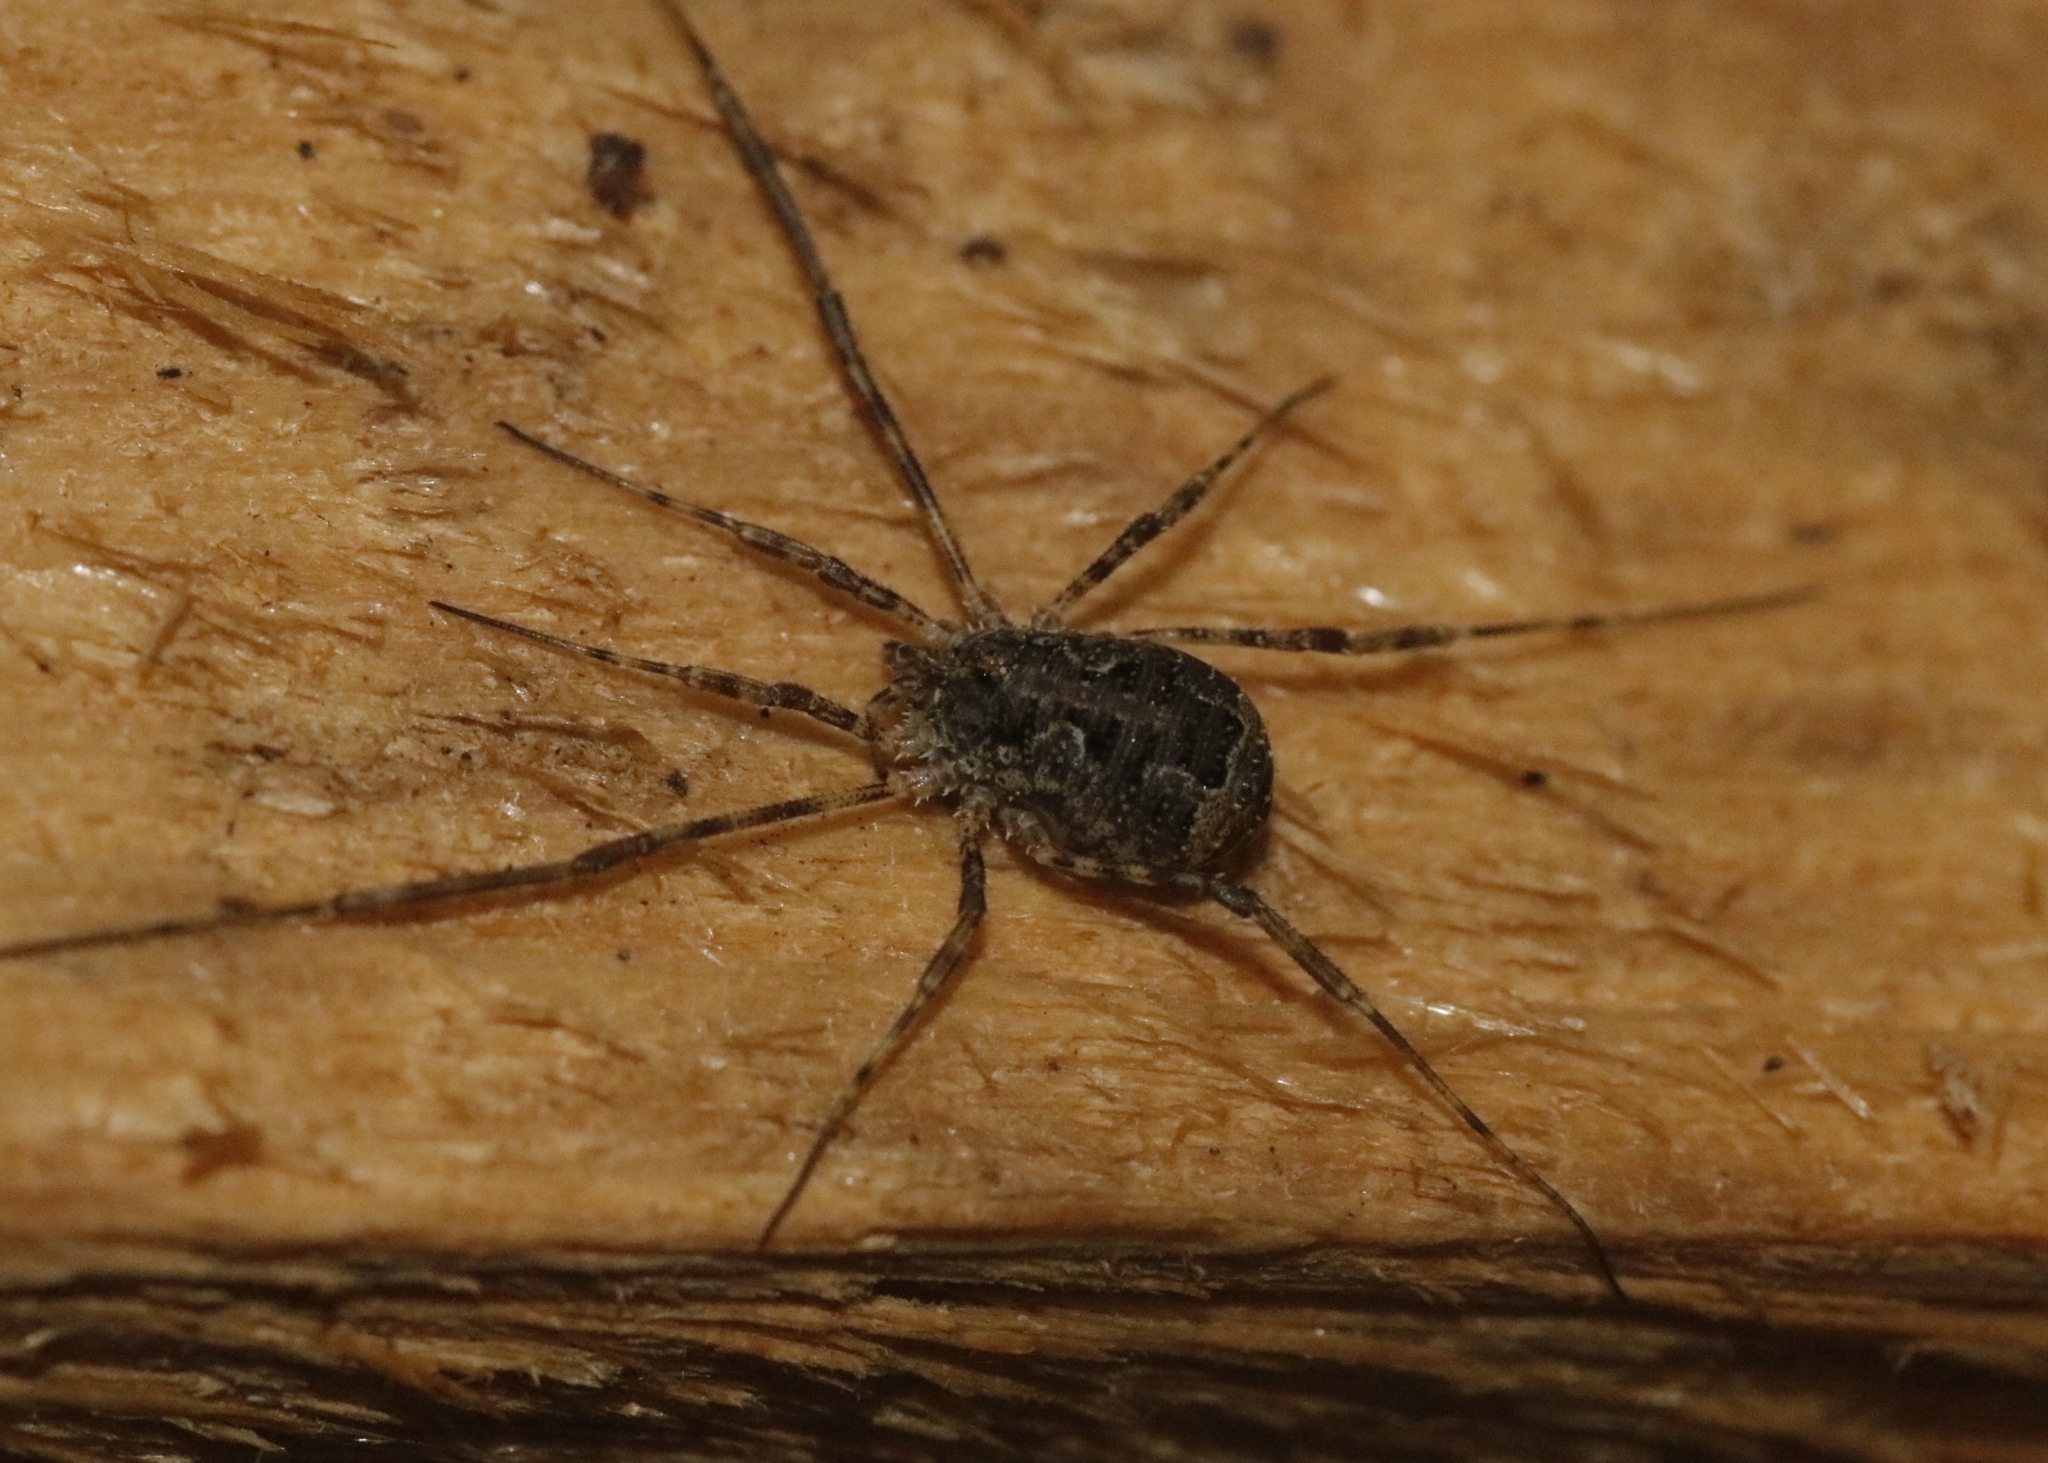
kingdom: Animalia
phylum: Arthropoda
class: Arachnida
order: Opiliones
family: Phalangiidae
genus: Lacinius
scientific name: Lacinius dentiger
